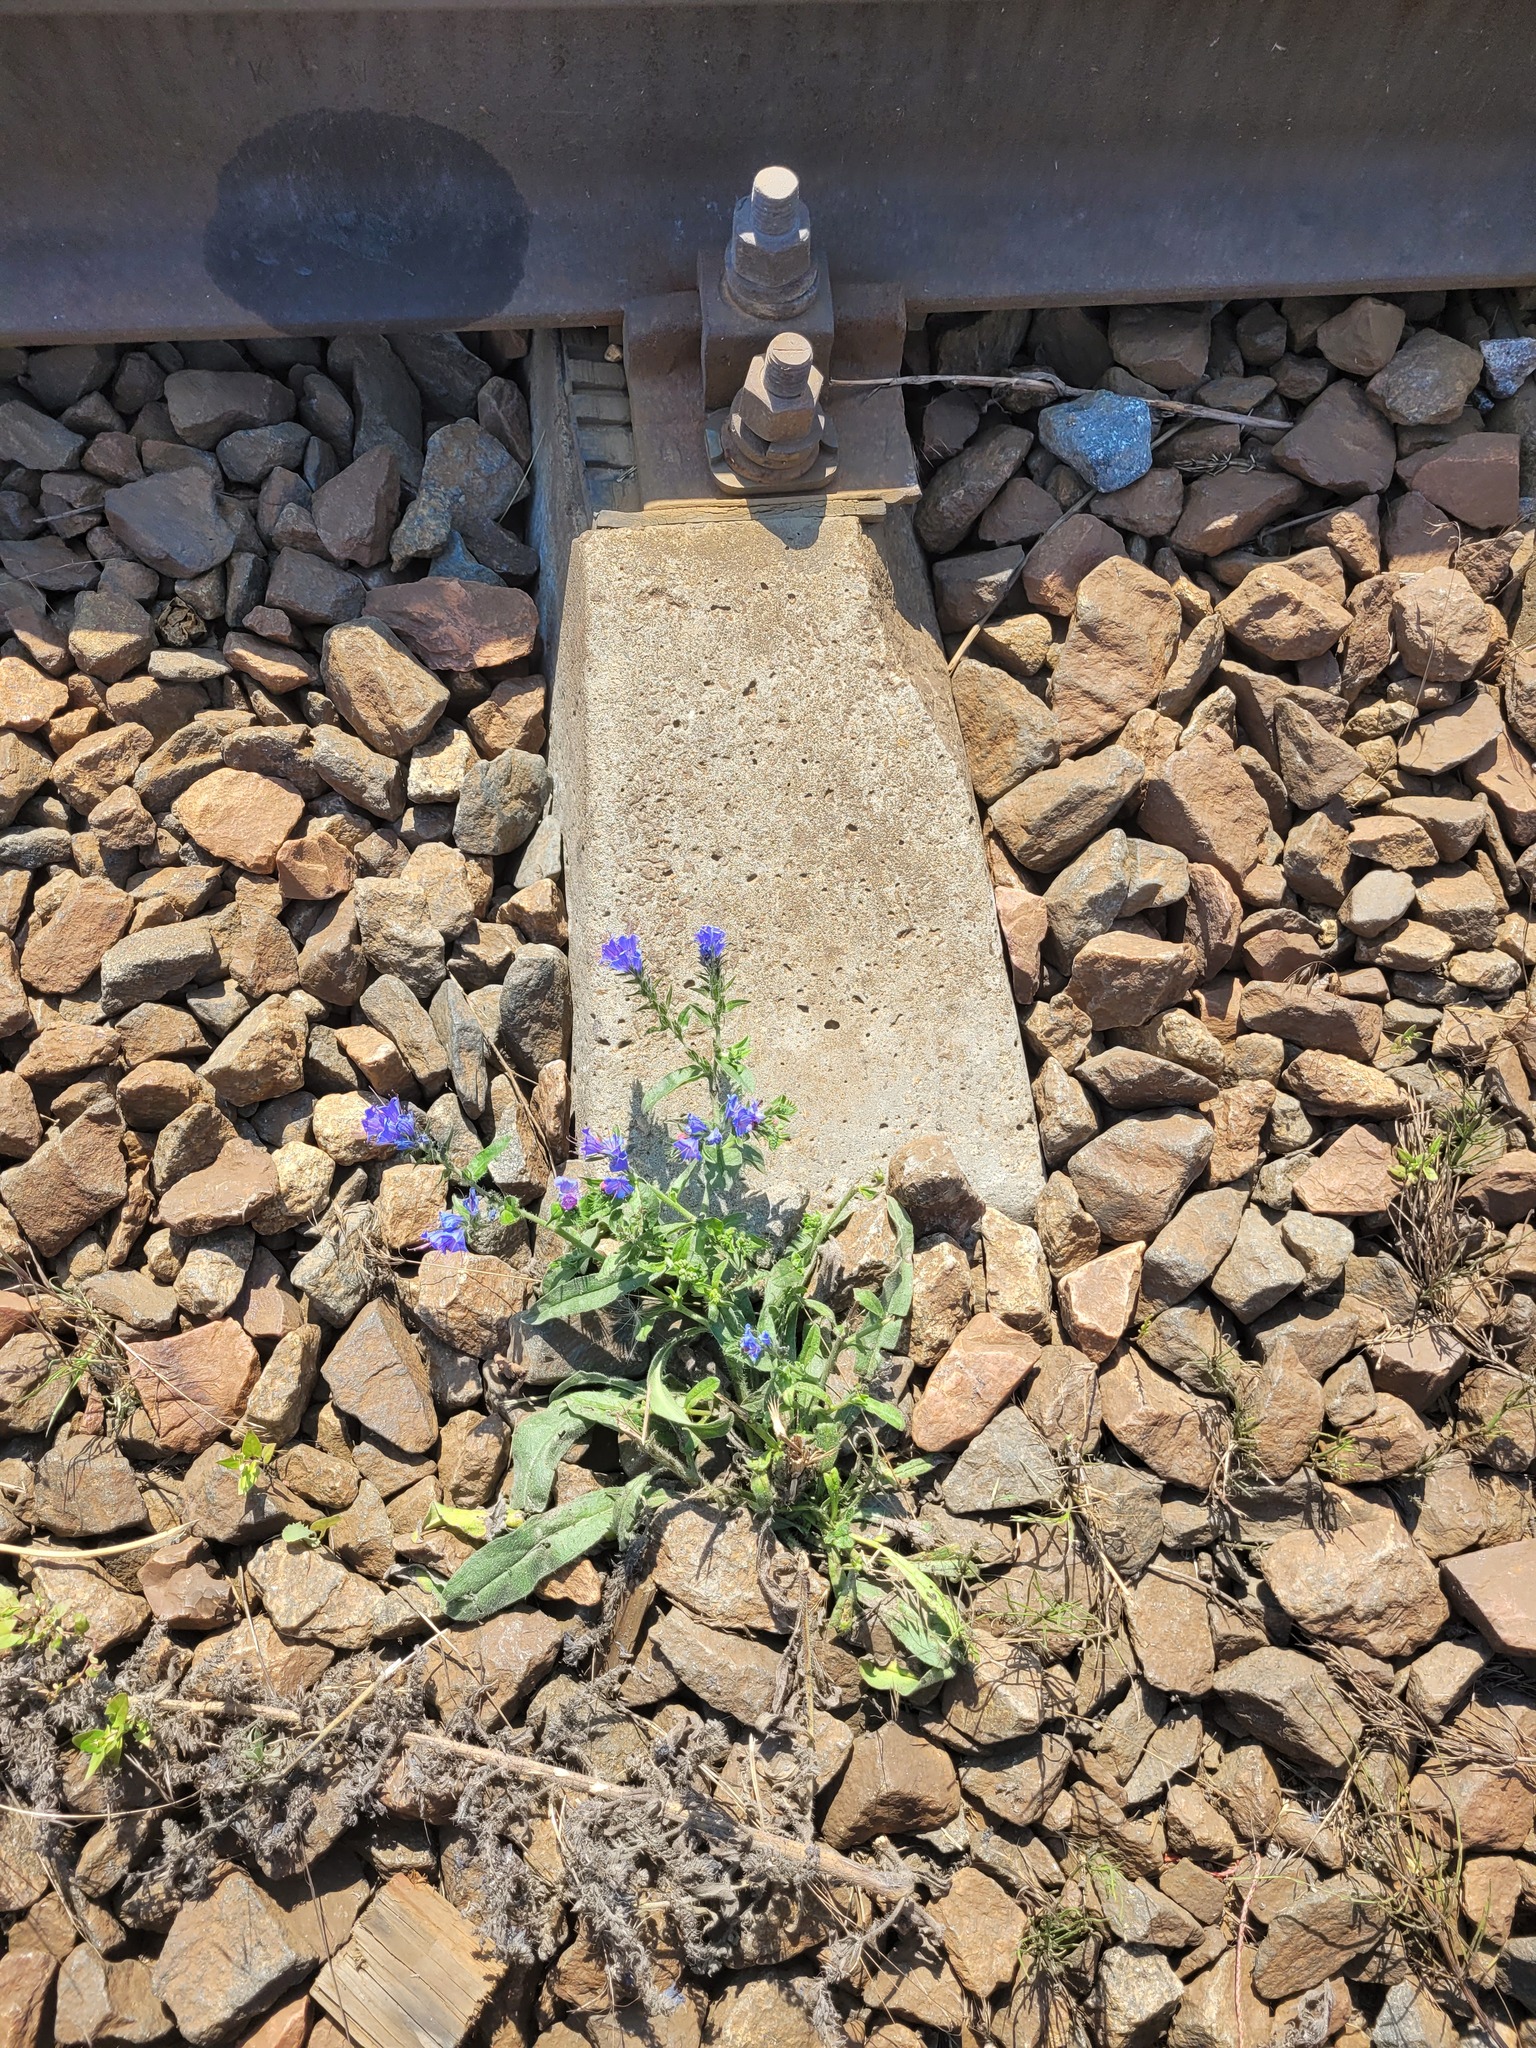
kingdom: Plantae
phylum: Tracheophyta
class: Magnoliopsida
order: Boraginales
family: Boraginaceae
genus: Echium
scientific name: Echium vulgare
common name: Common viper's bugloss
